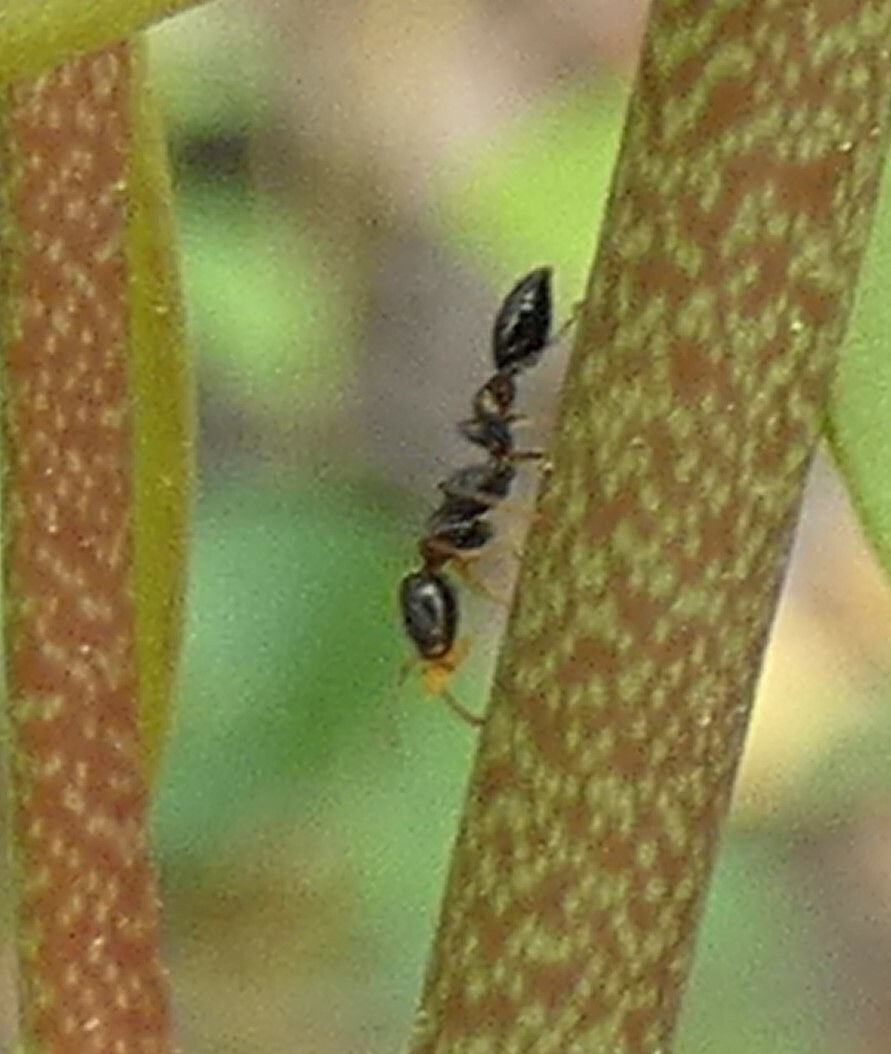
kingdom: Animalia
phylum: Arthropoda
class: Insecta
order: Hymenoptera
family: Formicidae
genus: Pseudomyrmex
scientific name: Pseudomyrmex ejectus
